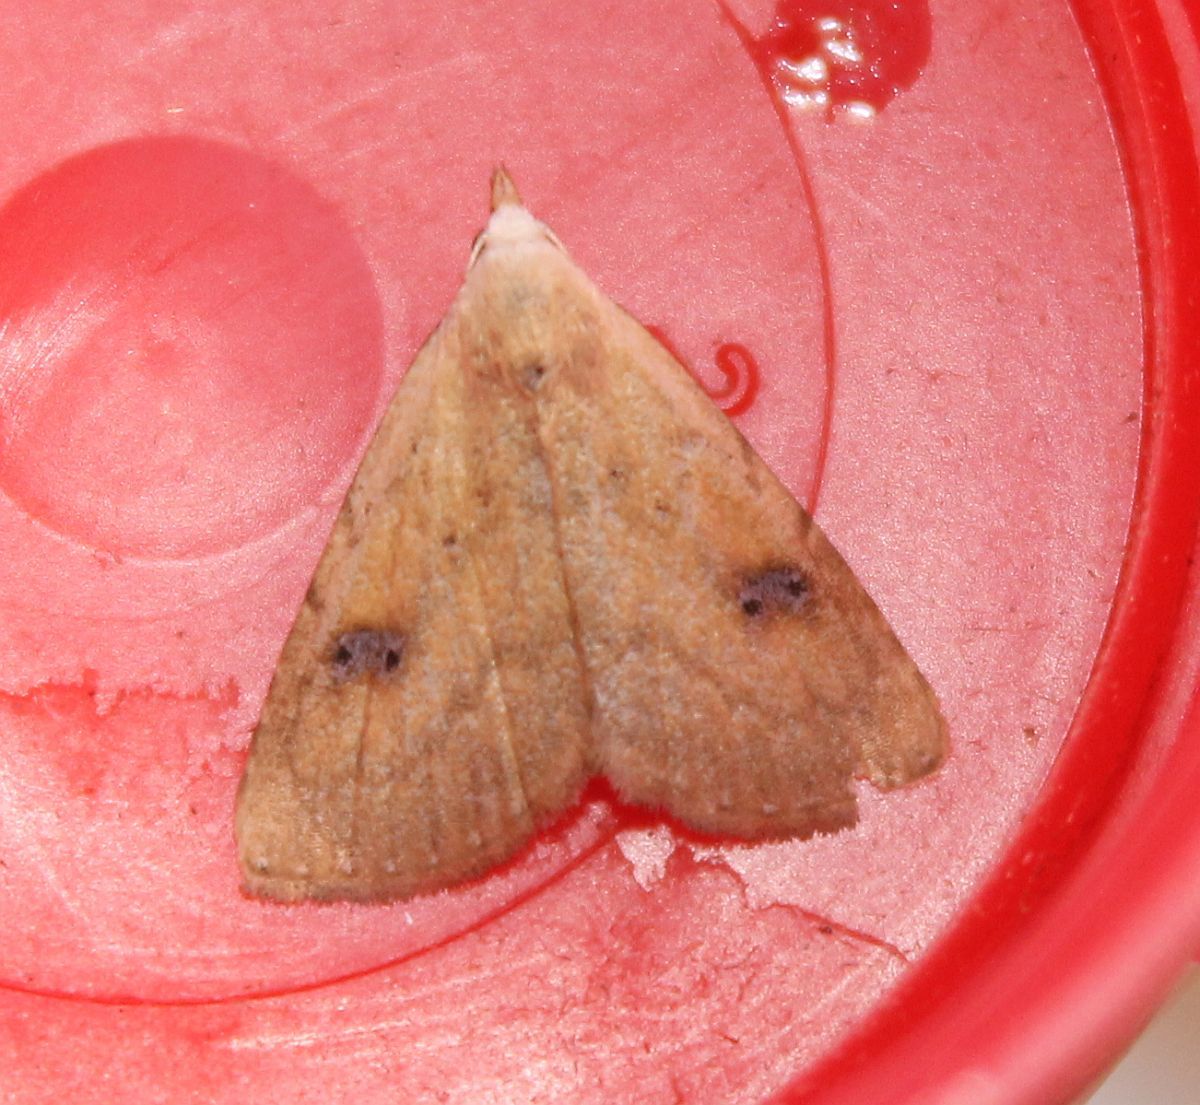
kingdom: Animalia
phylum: Arthropoda
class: Insecta
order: Lepidoptera
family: Erebidae
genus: Rivula
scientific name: Rivula sericealis
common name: Straw dot
